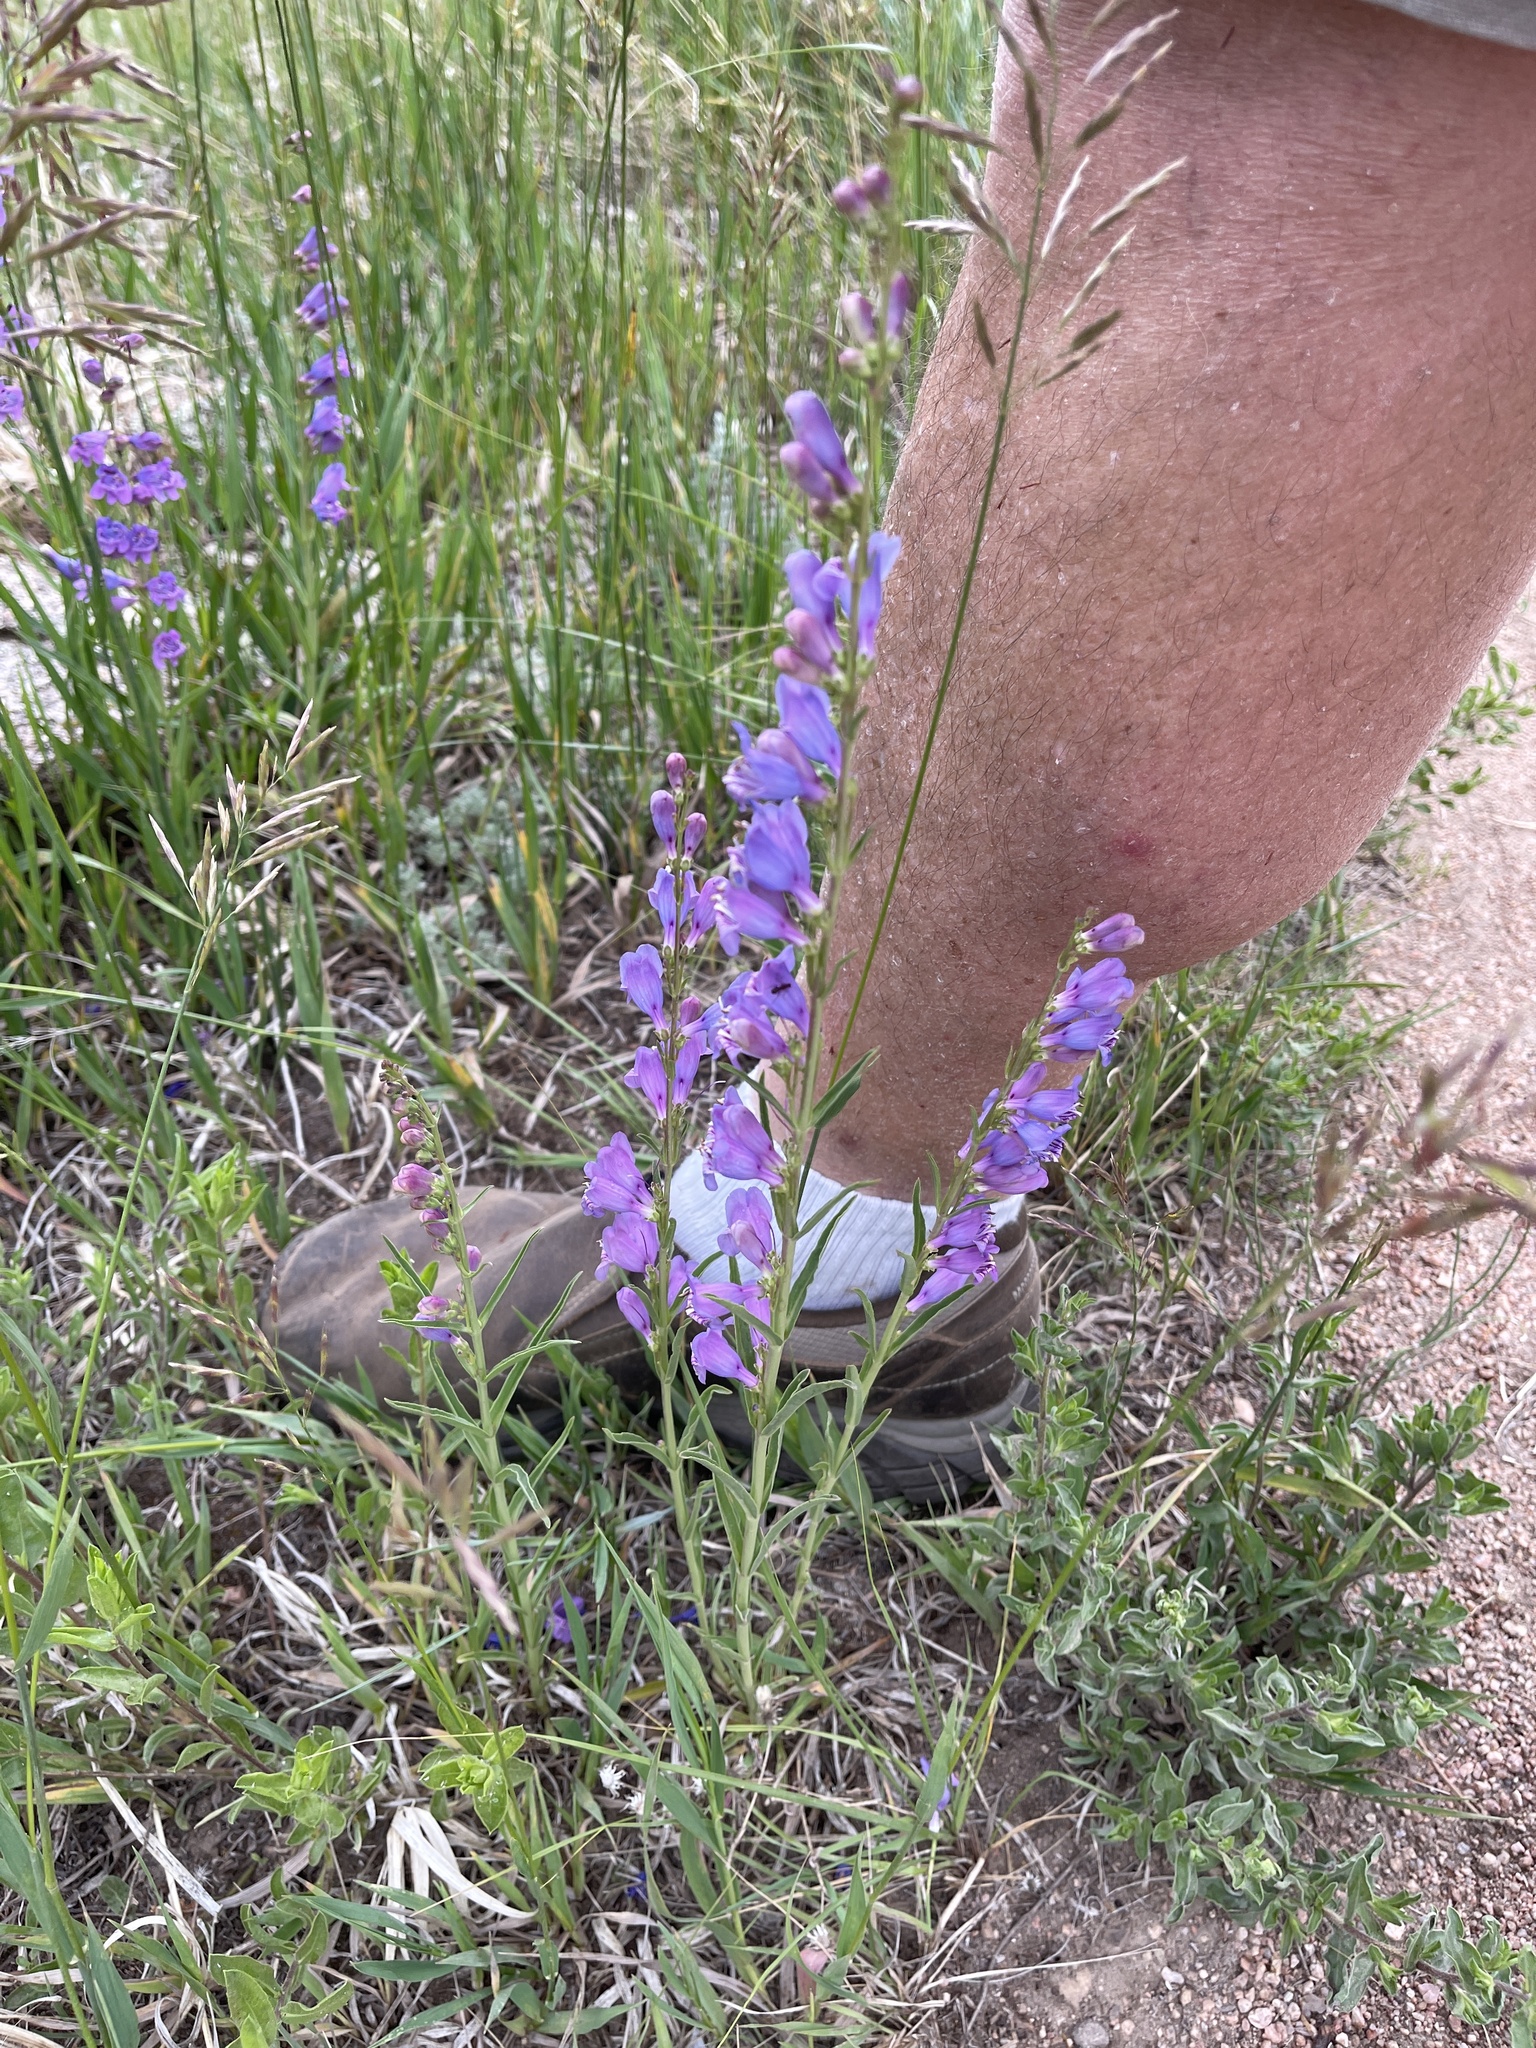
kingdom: Plantae
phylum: Tracheophyta
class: Magnoliopsida
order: Lamiales
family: Plantaginaceae
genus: Penstemon
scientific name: Penstemon virgatus
